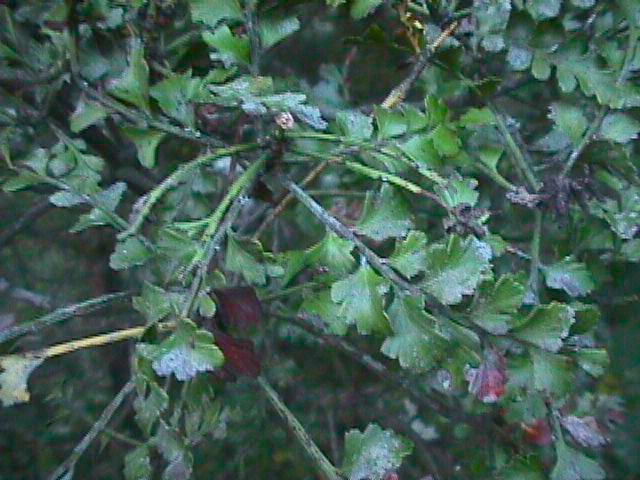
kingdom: Plantae
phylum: Tracheophyta
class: Pinopsida
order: Pinales
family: Phyllocladaceae
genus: Phyllocladus
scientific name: Phyllocladus trichomanoides
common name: Celery pine
